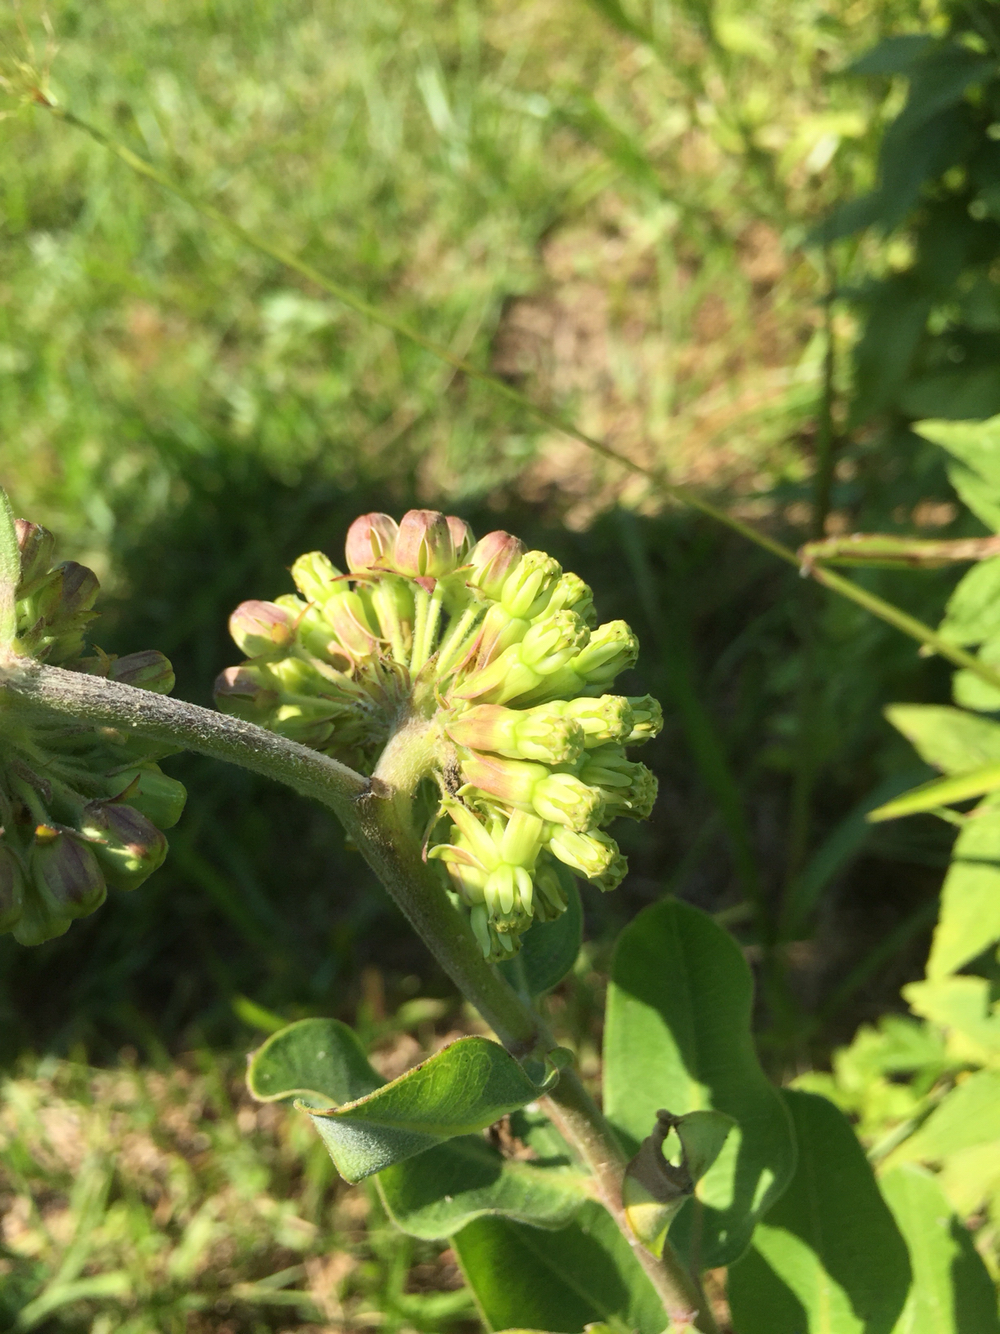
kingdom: Plantae
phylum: Tracheophyta
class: Magnoliopsida
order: Gentianales
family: Apocynaceae
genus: Asclepias
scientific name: Asclepias viridiflora
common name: Green comet milkweed
